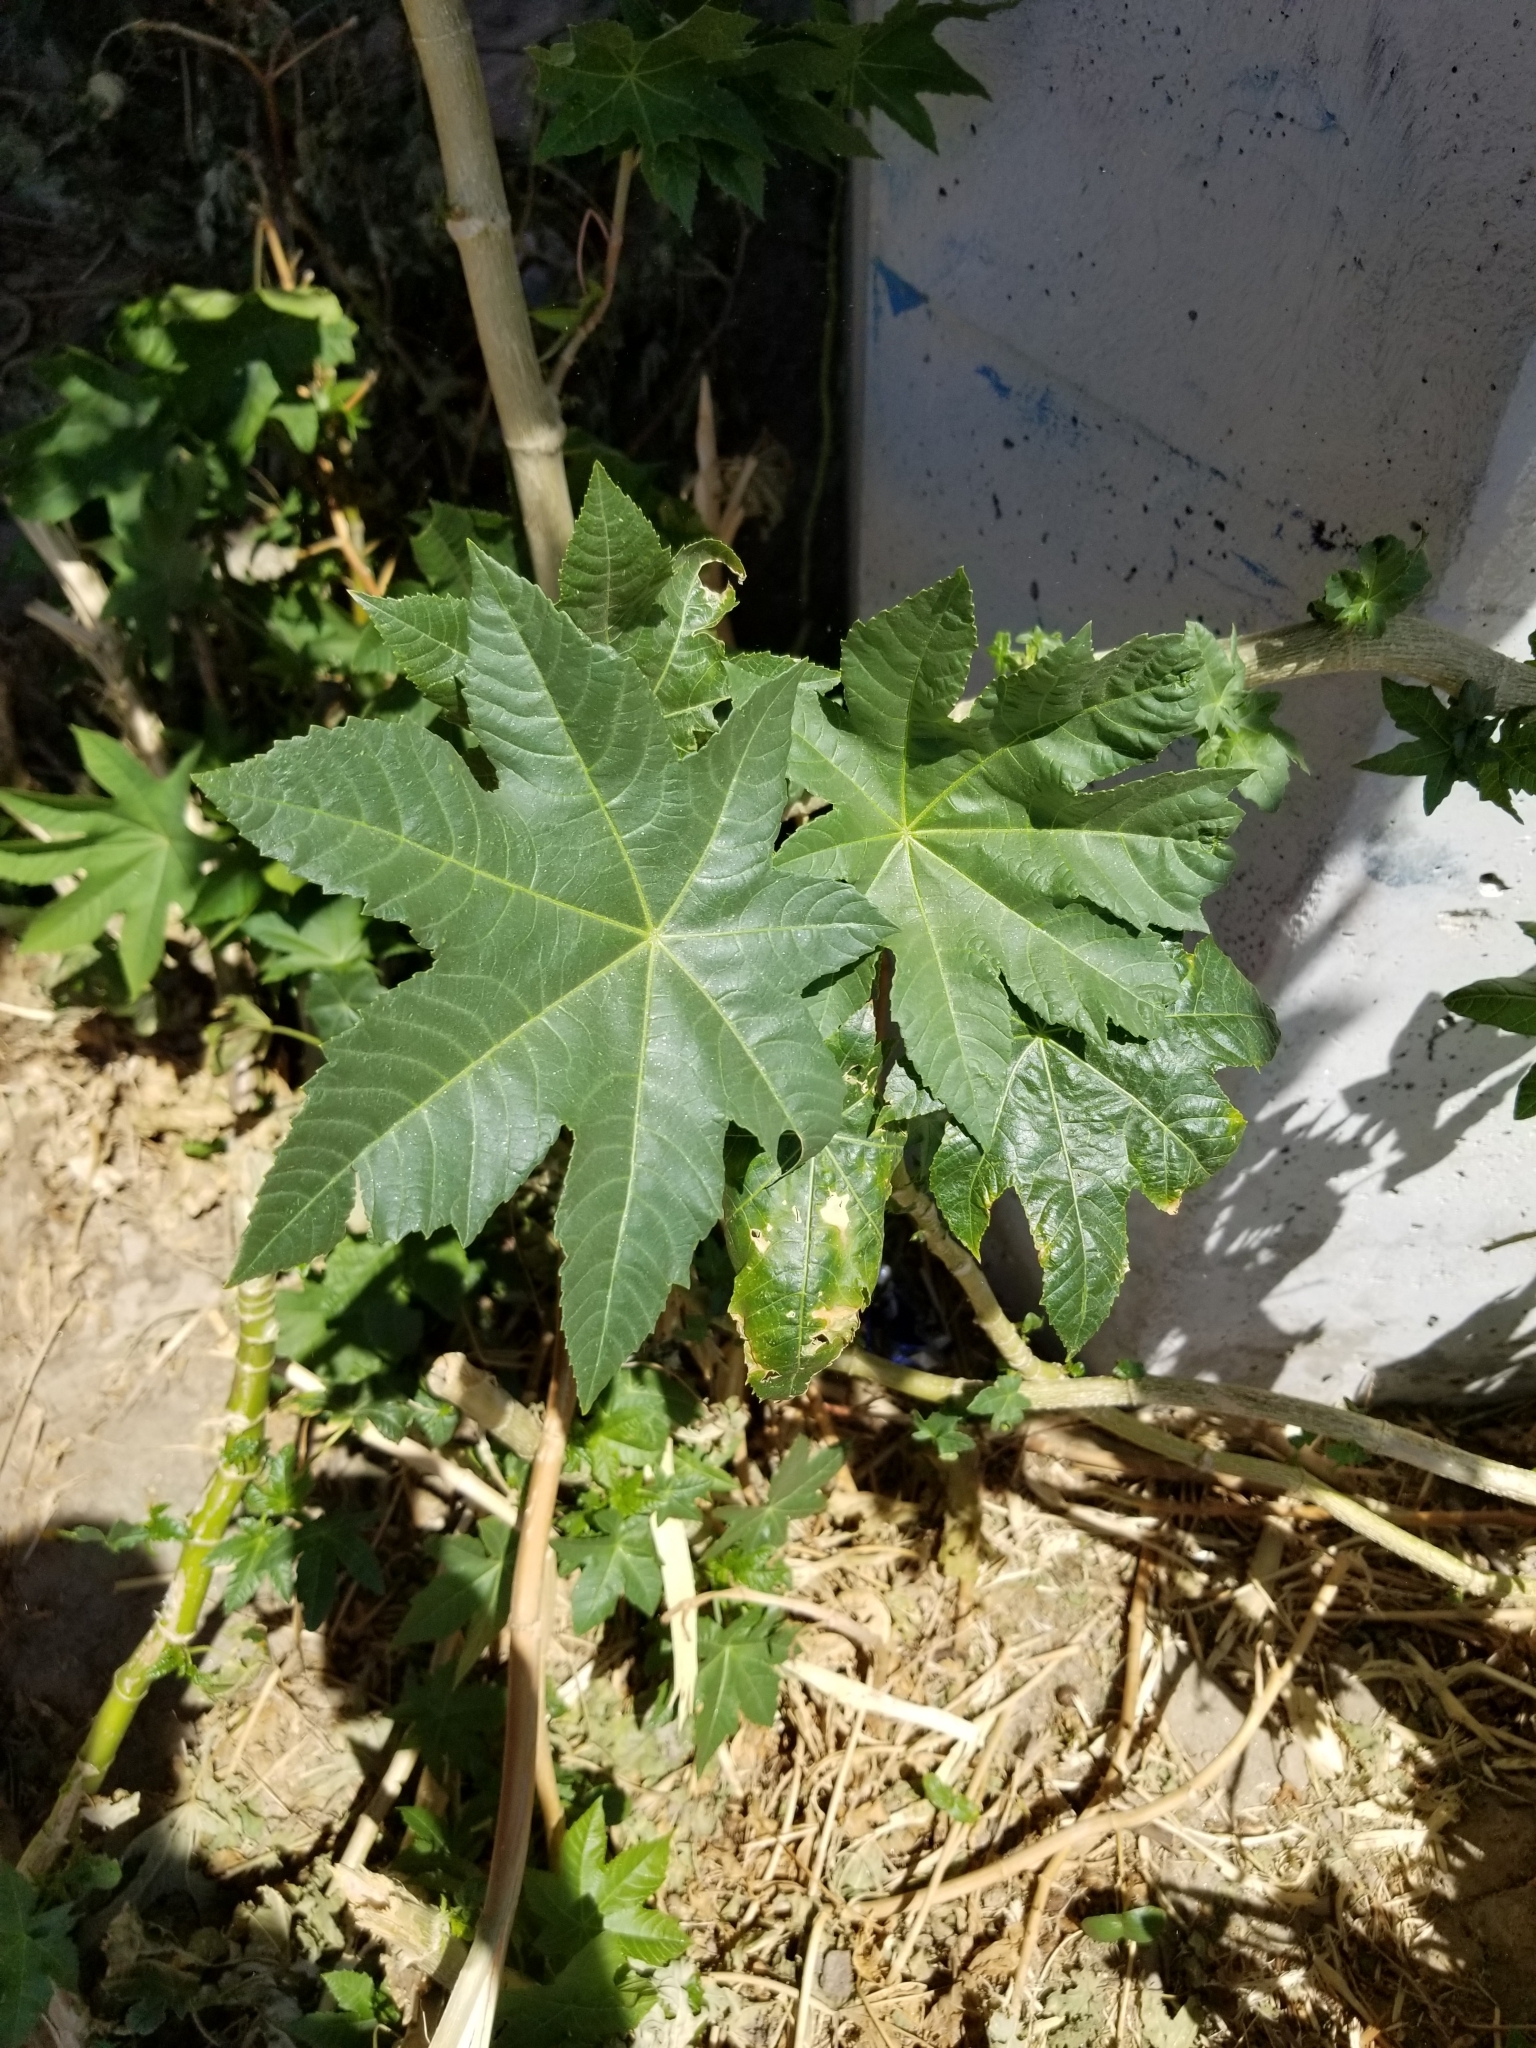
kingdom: Plantae
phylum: Tracheophyta
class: Magnoliopsida
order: Malpighiales
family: Euphorbiaceae
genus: Ricinus
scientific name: Ricinus communis
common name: Castor-oil-plant
